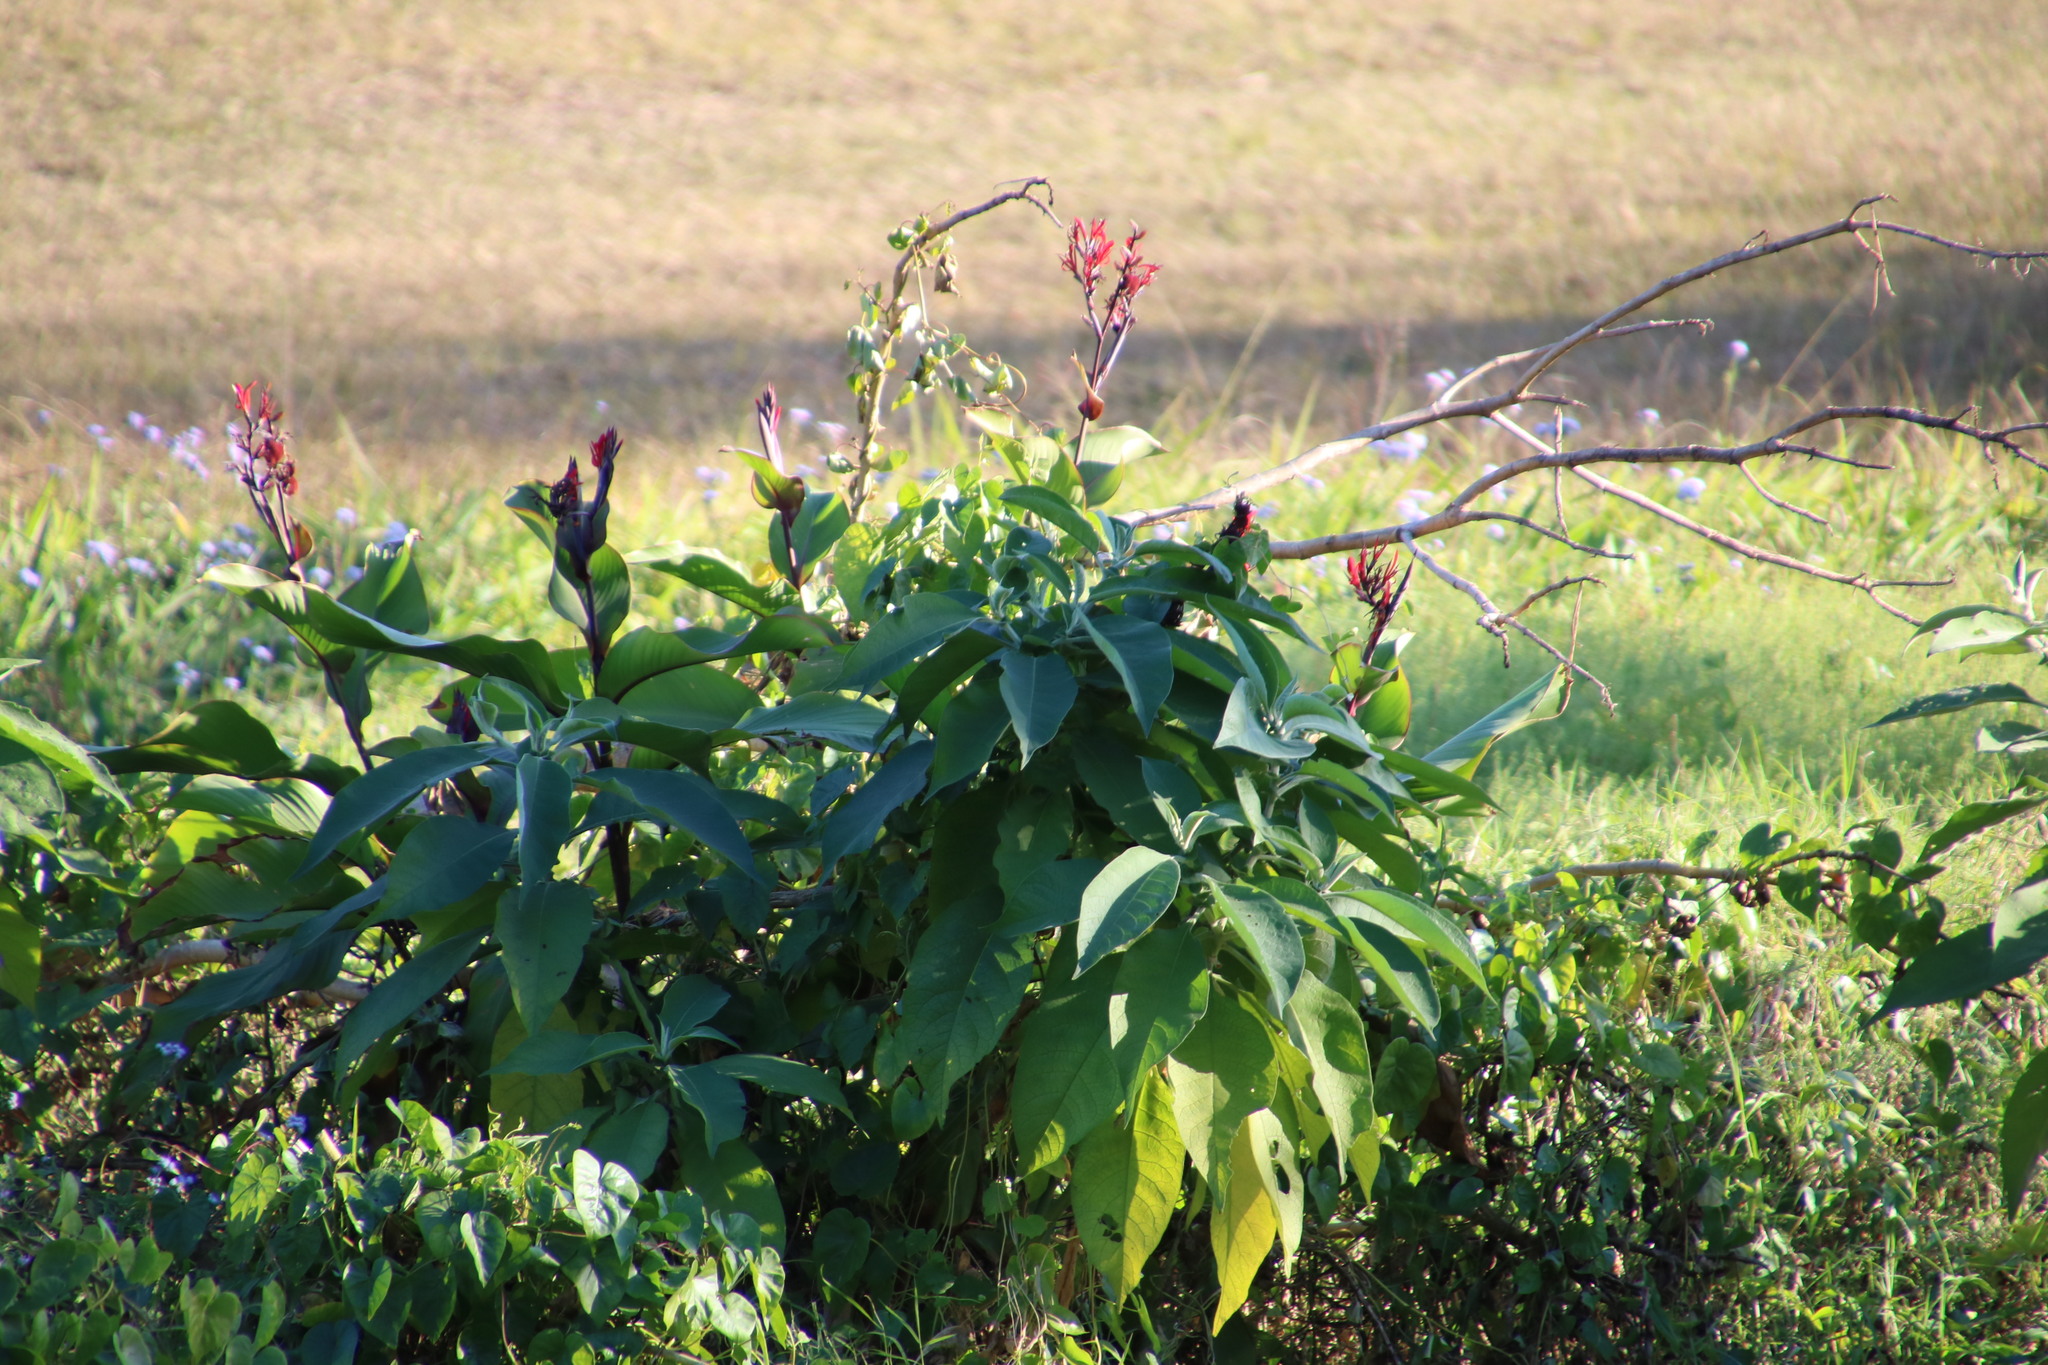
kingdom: Plantae
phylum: Tracheophyta
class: Liliopsida
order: Zingiberales
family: Cannaceae
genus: Canna
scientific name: Canna indica
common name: Indian shot
